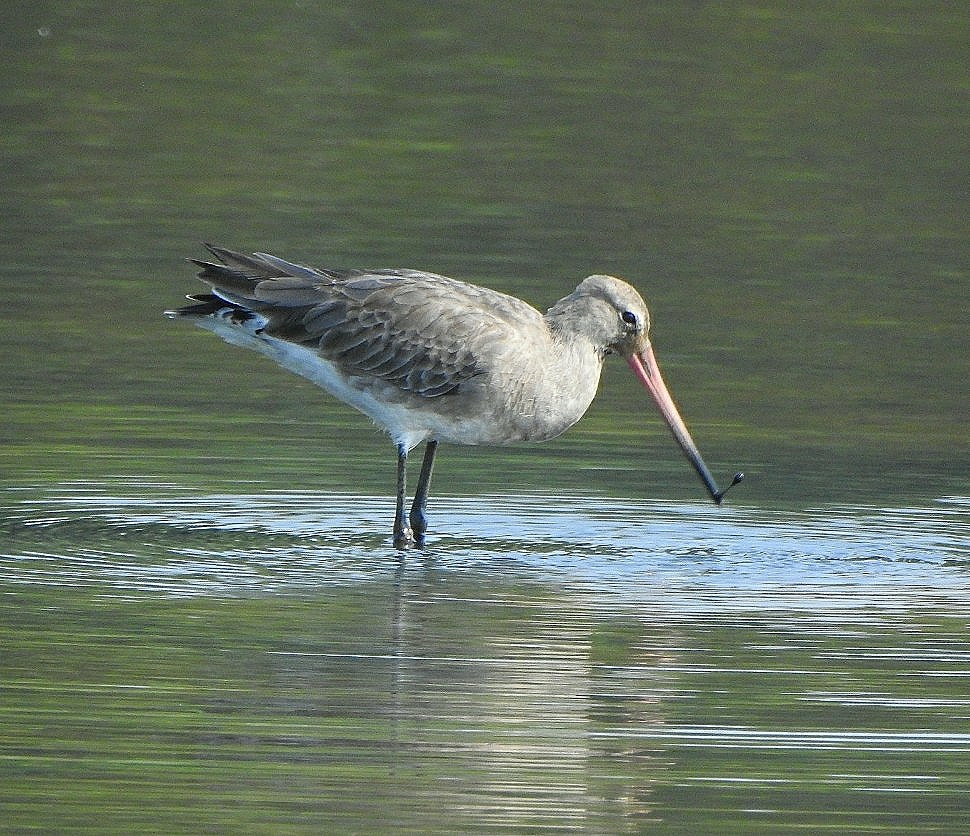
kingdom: Animalia
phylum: Chordata
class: Aves
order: Charadriiformes
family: Scolopacidae
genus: Limosa
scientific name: Limosa limosa
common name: Black-tailed godwit
